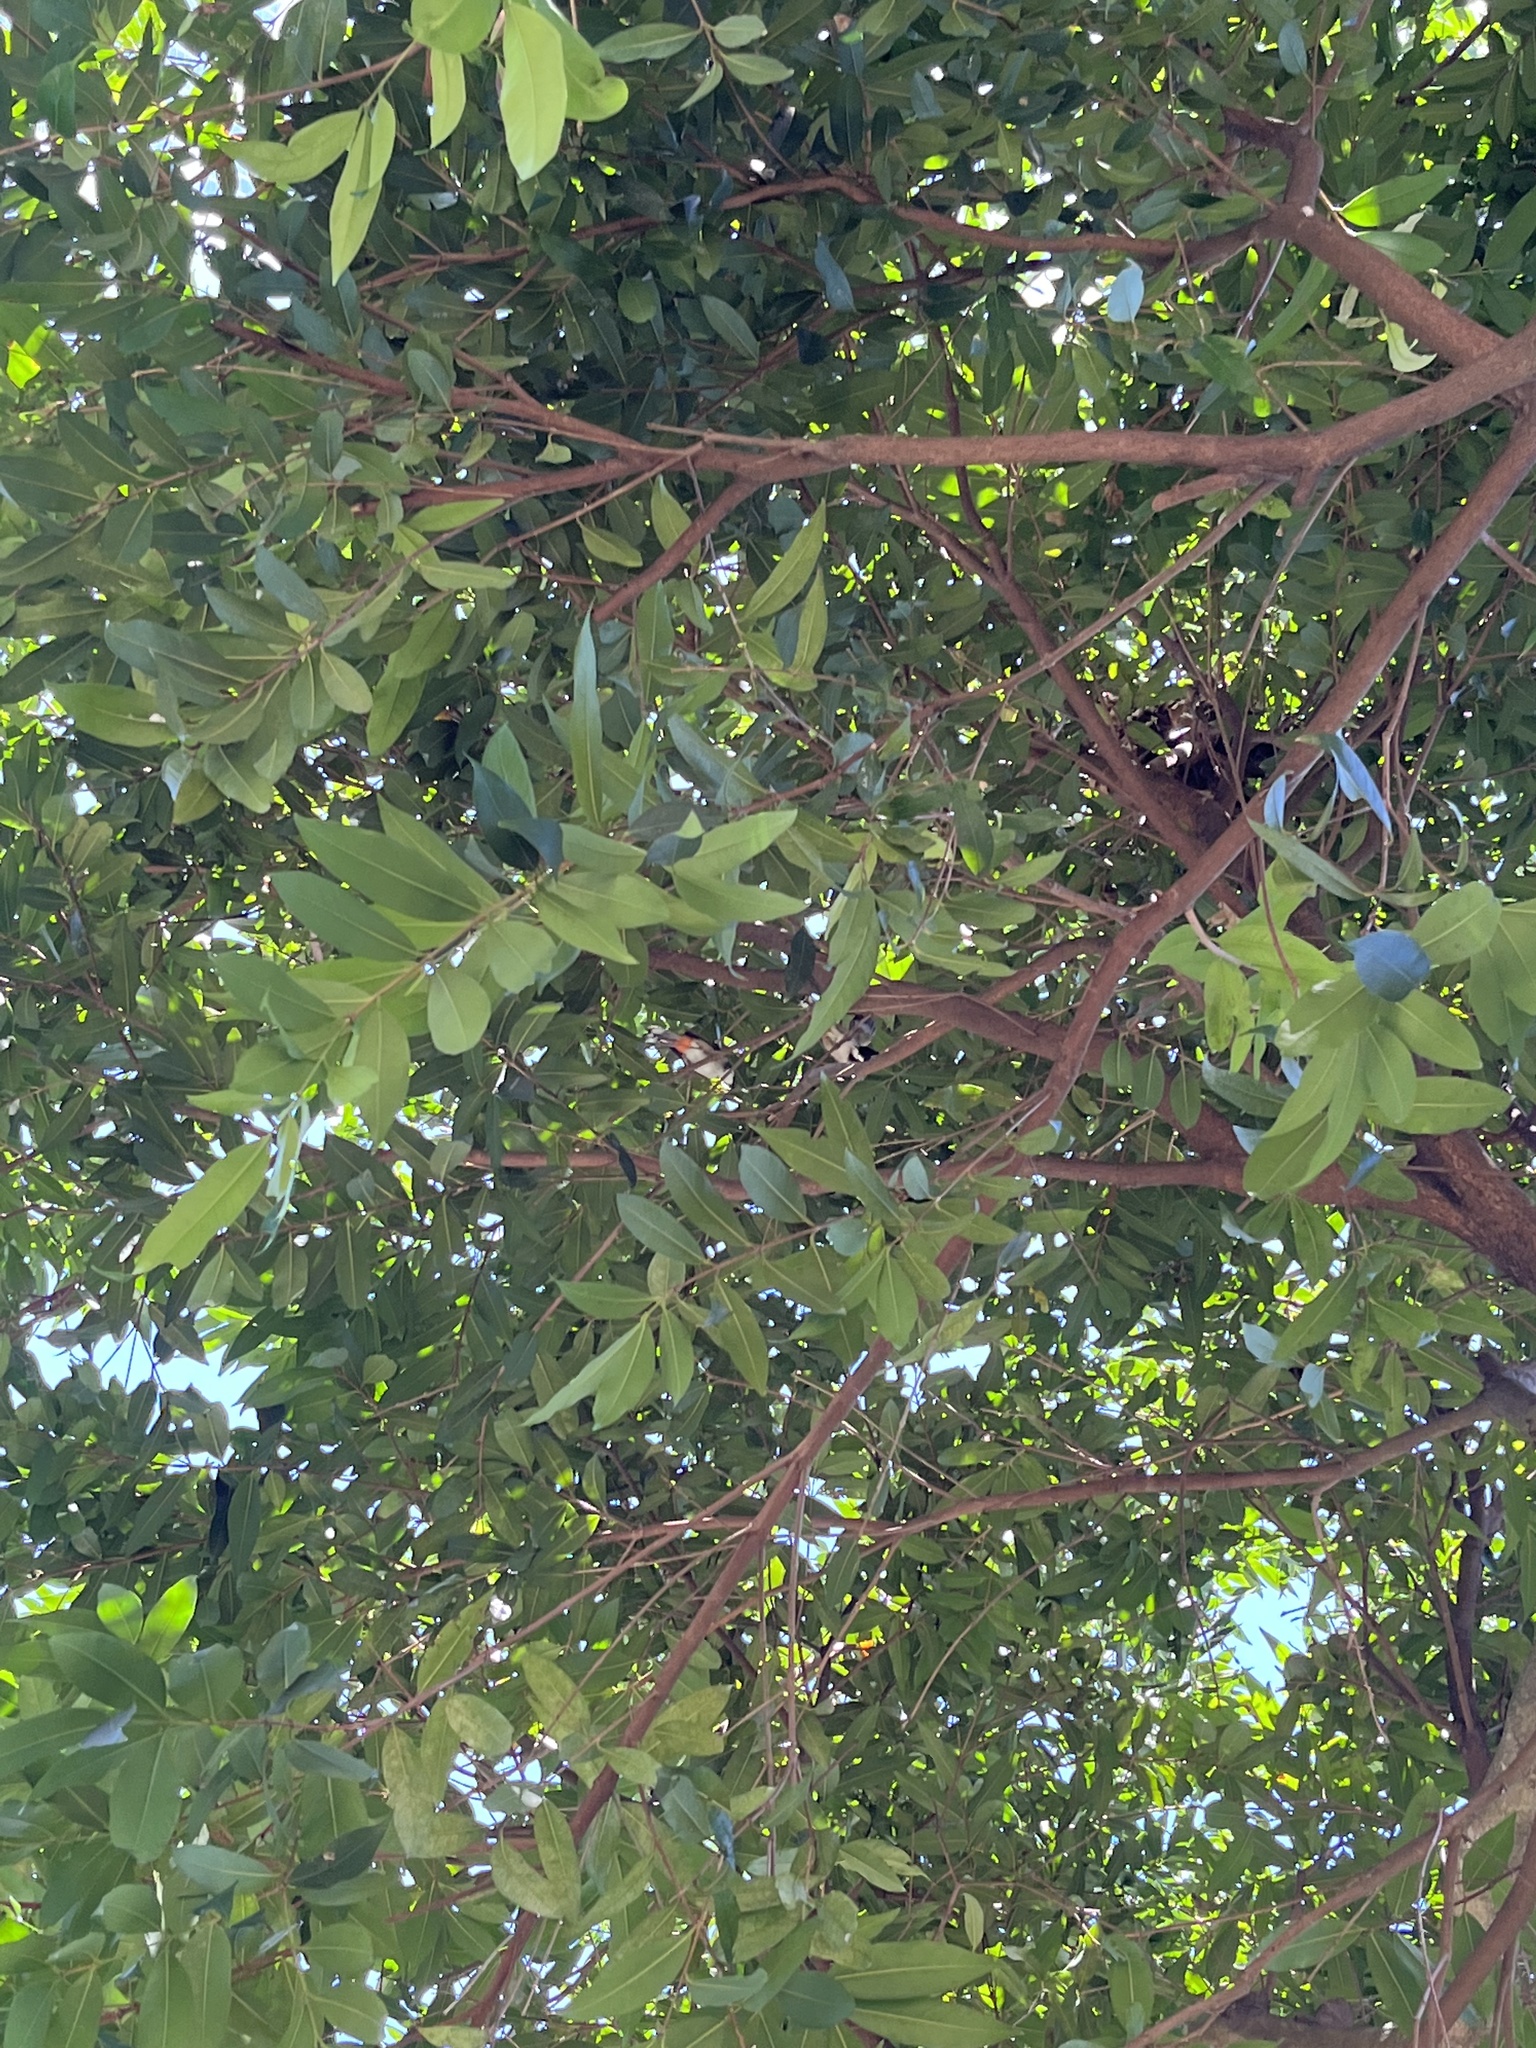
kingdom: Animalia
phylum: Chordata
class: Aves
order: Passeriformes
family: Pycnonotidae
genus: Pycnonotus
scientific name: Pycnonotus jocosus
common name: Red-whiskered bulbul
